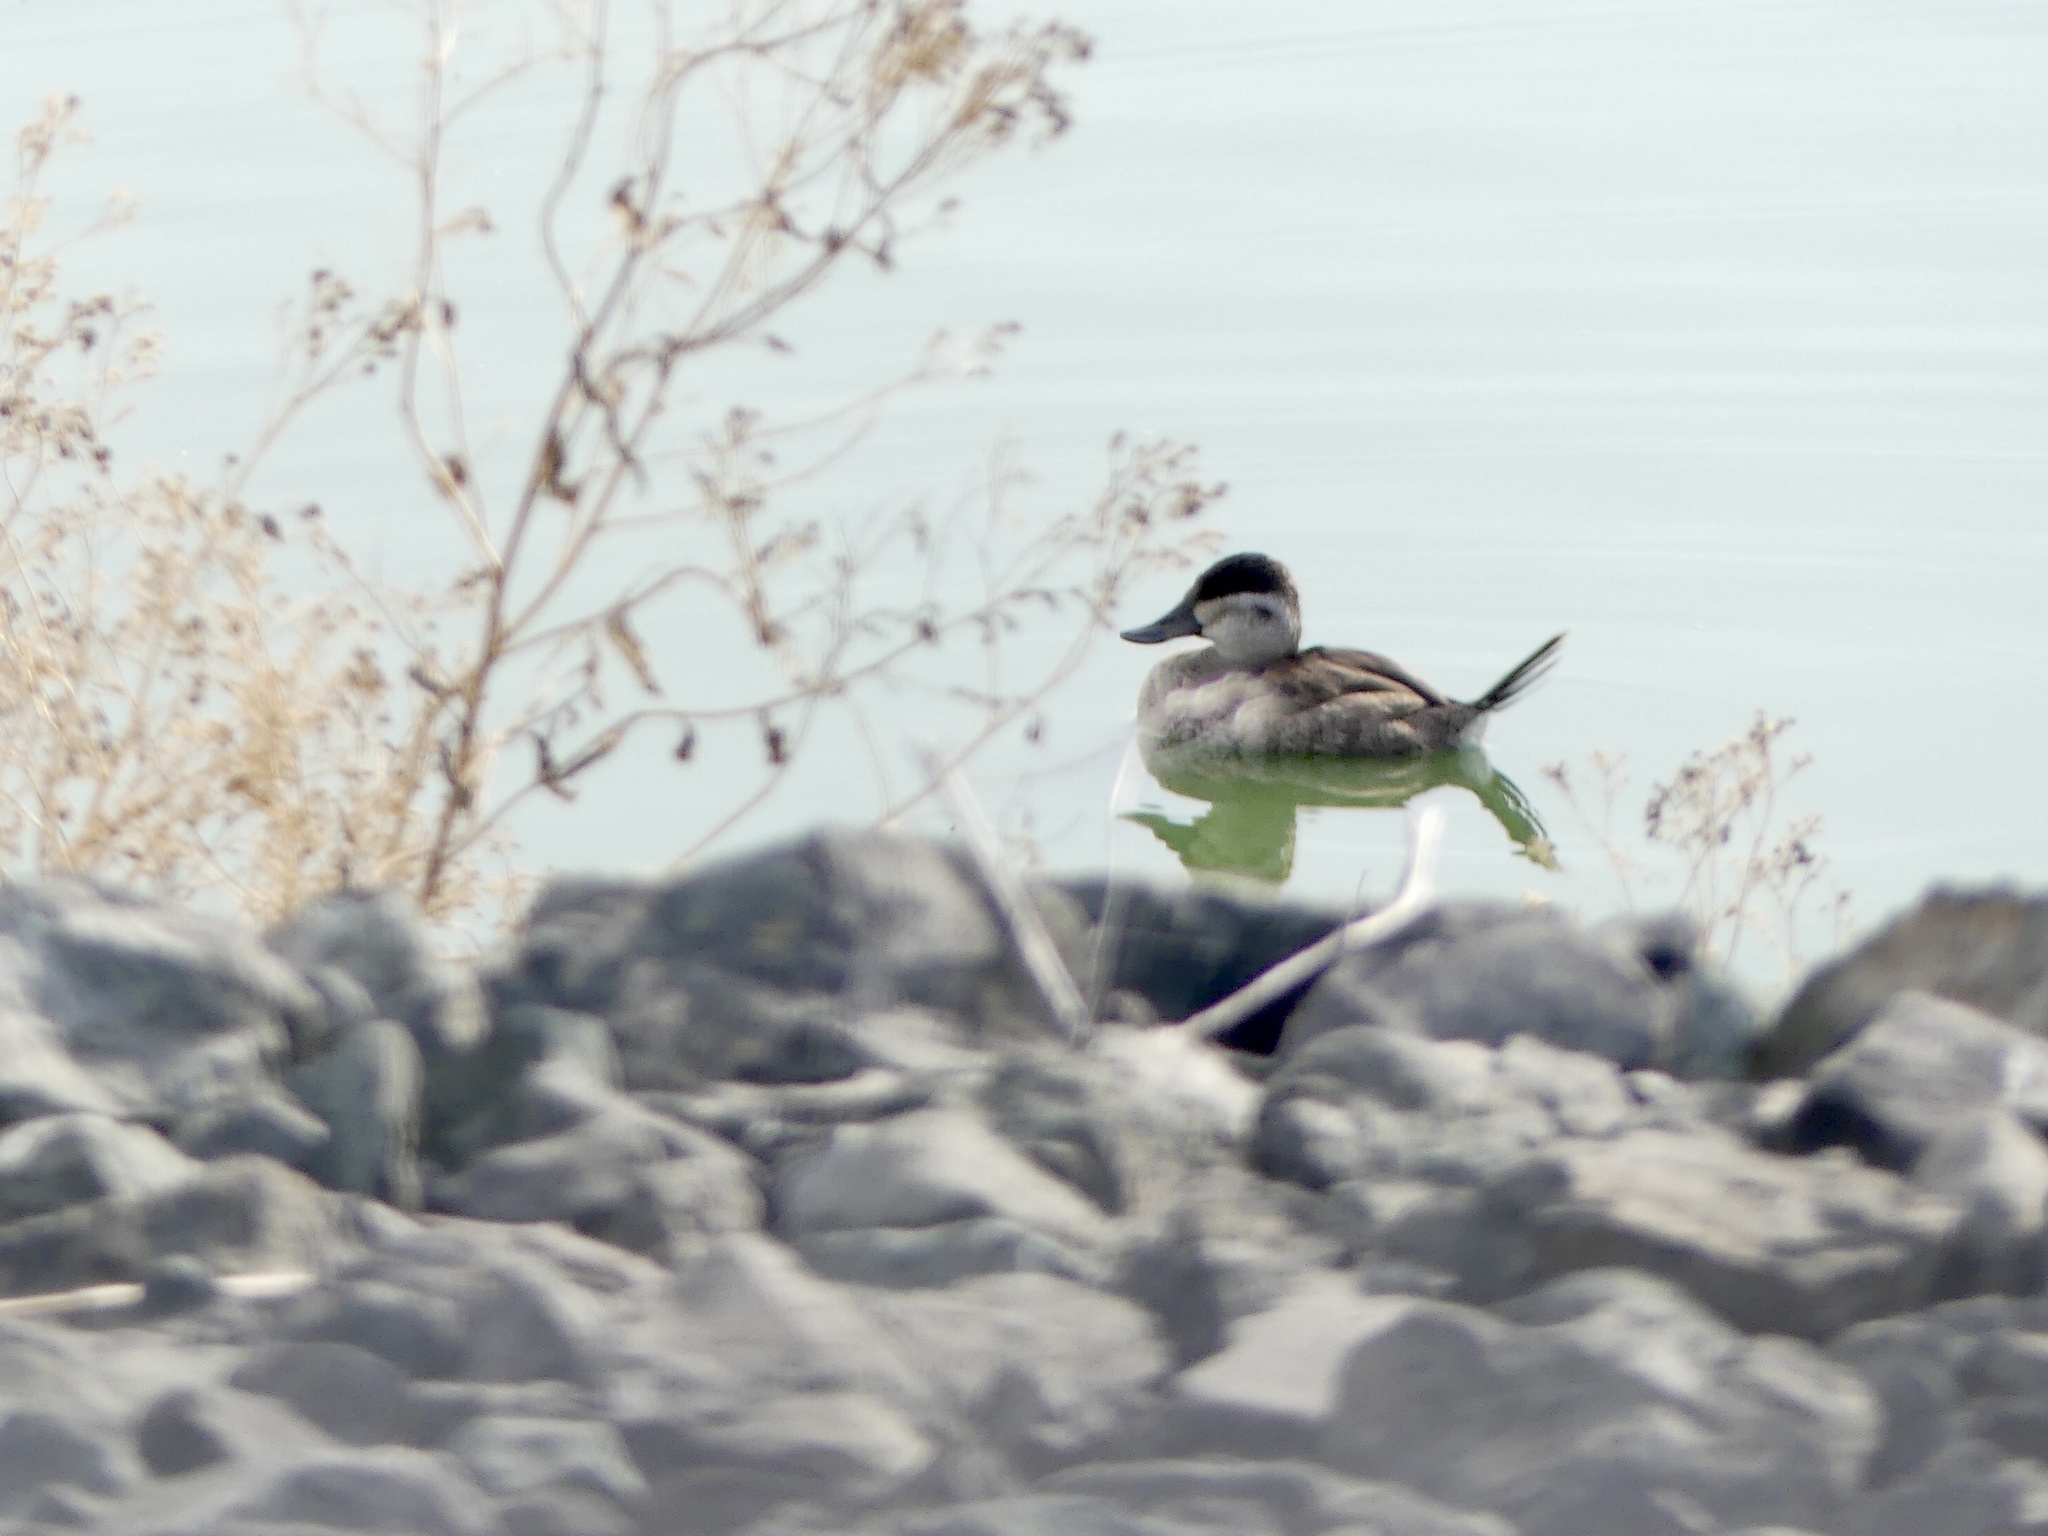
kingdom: Animalia
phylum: Chordata
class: Aves
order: Anseriformes
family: Anatidae
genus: Oxyura
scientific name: Oxyura jamaicensis
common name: Ruddy duck
